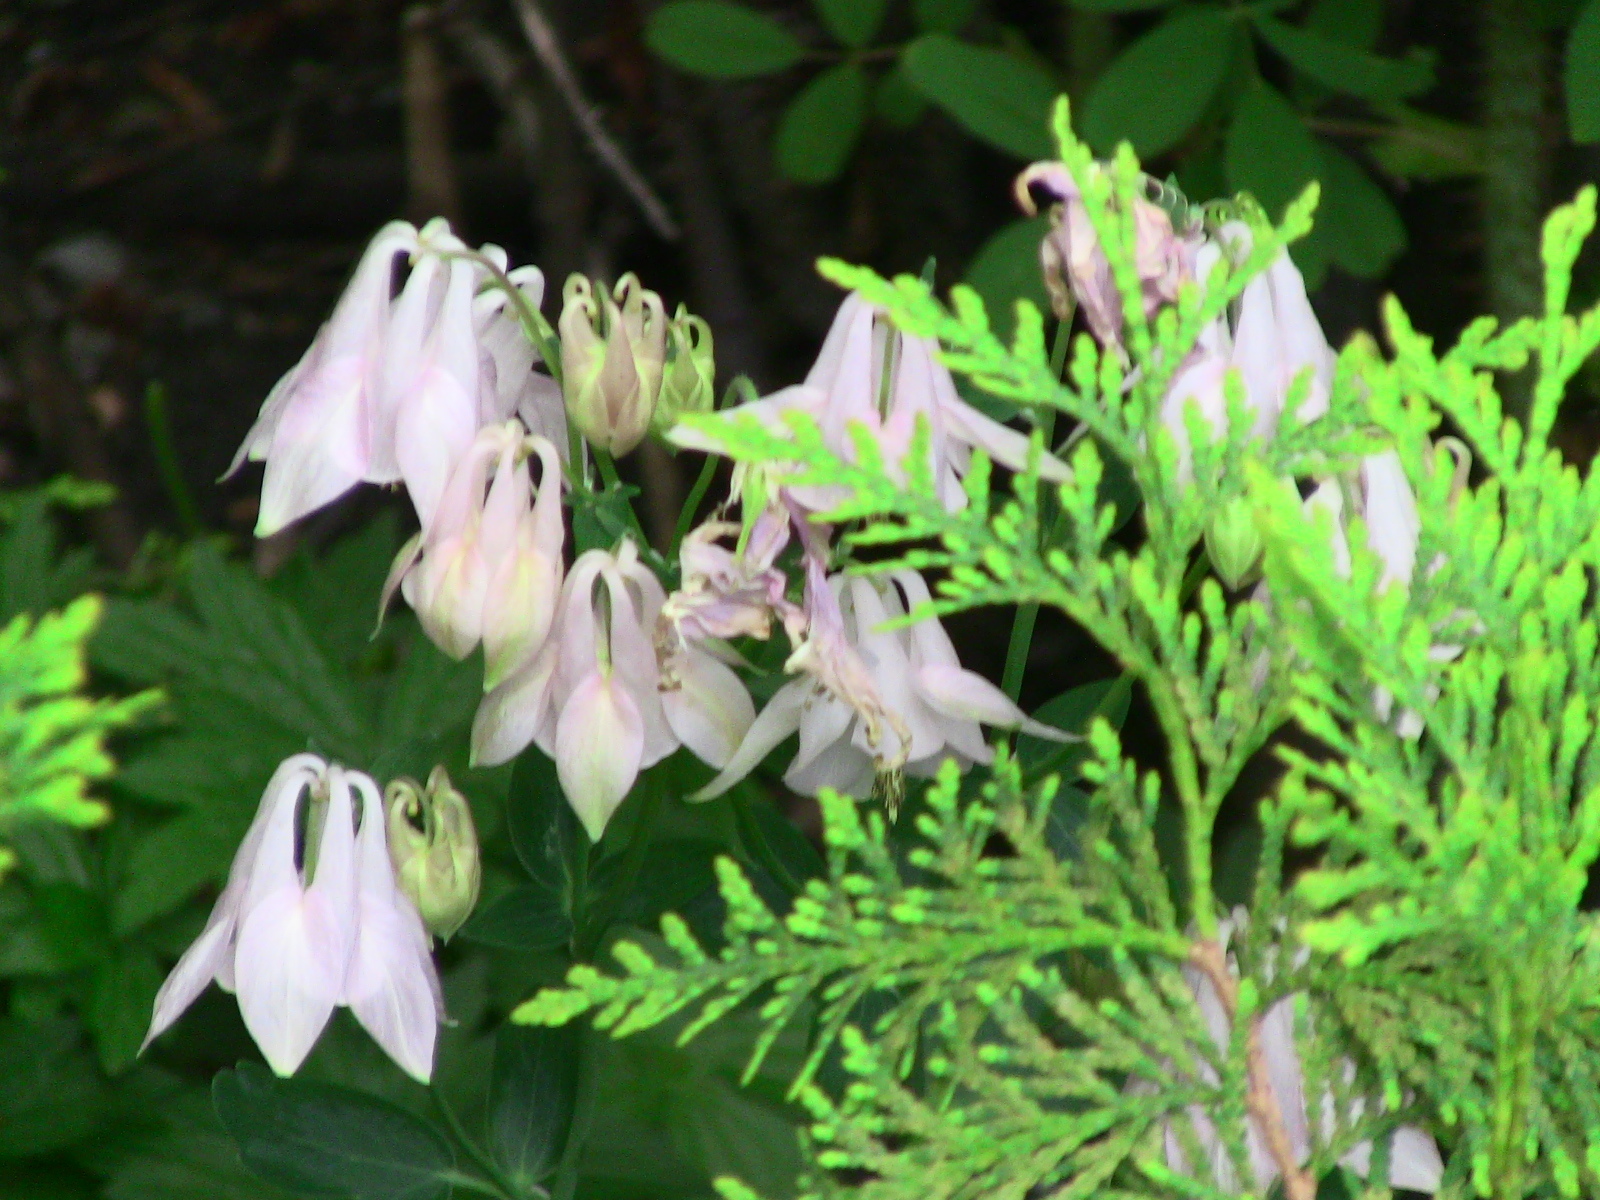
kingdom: Plantae
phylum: Tracheophyta
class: Magnoliopsida
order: Ranunculales
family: Ranunculaceae
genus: Aquilegia
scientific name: Aquilegia vulgaris
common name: Columbine
